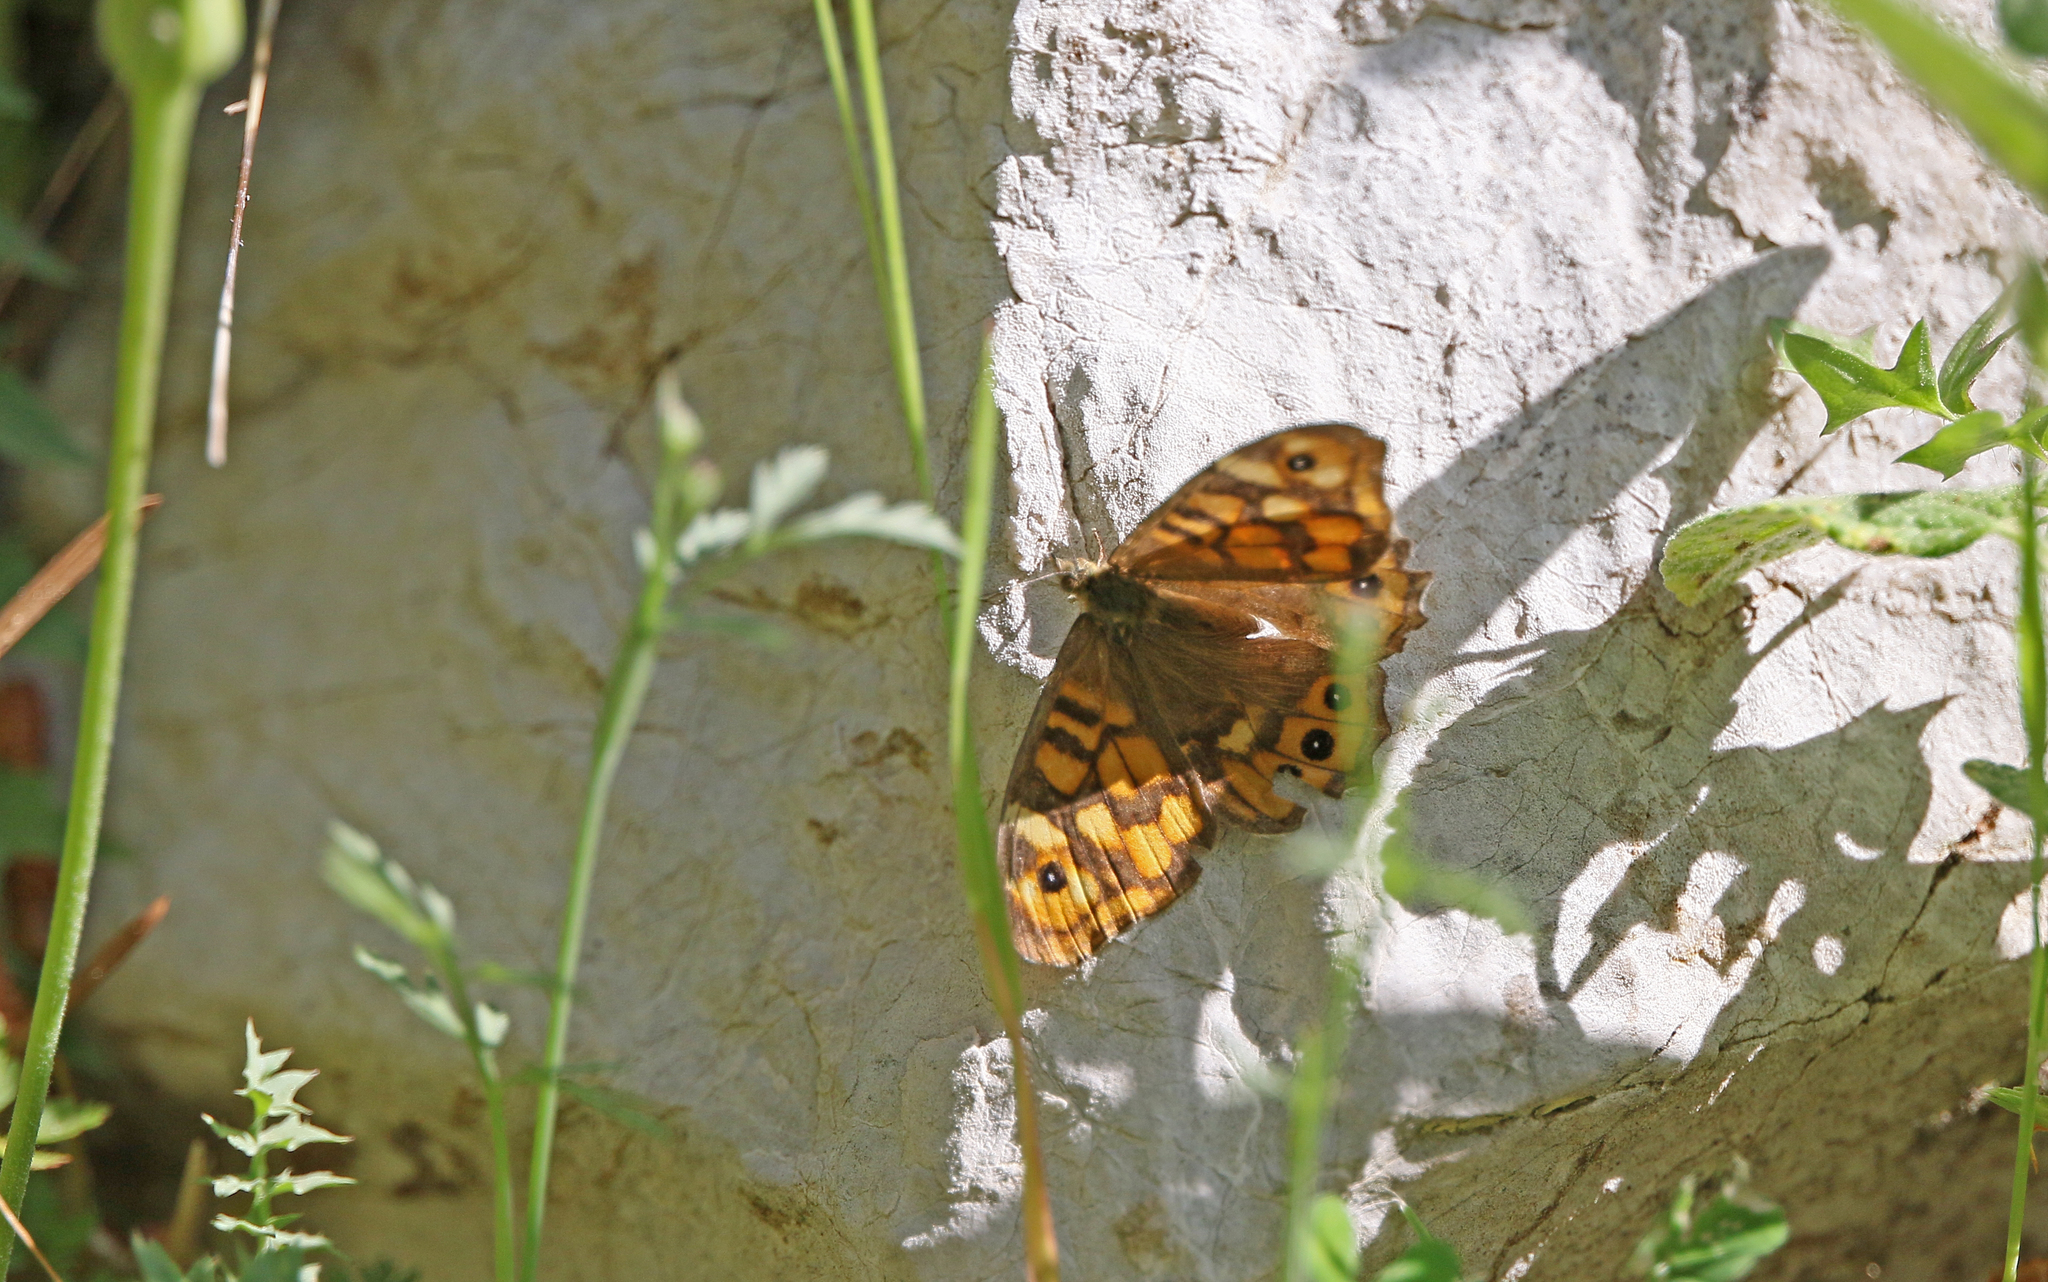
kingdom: Animalia
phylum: Arthropoda
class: Insecta
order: Lepidoptera
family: Nymphalidae
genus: Pararge
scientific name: Pararge aegeria
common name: Speckled wood
